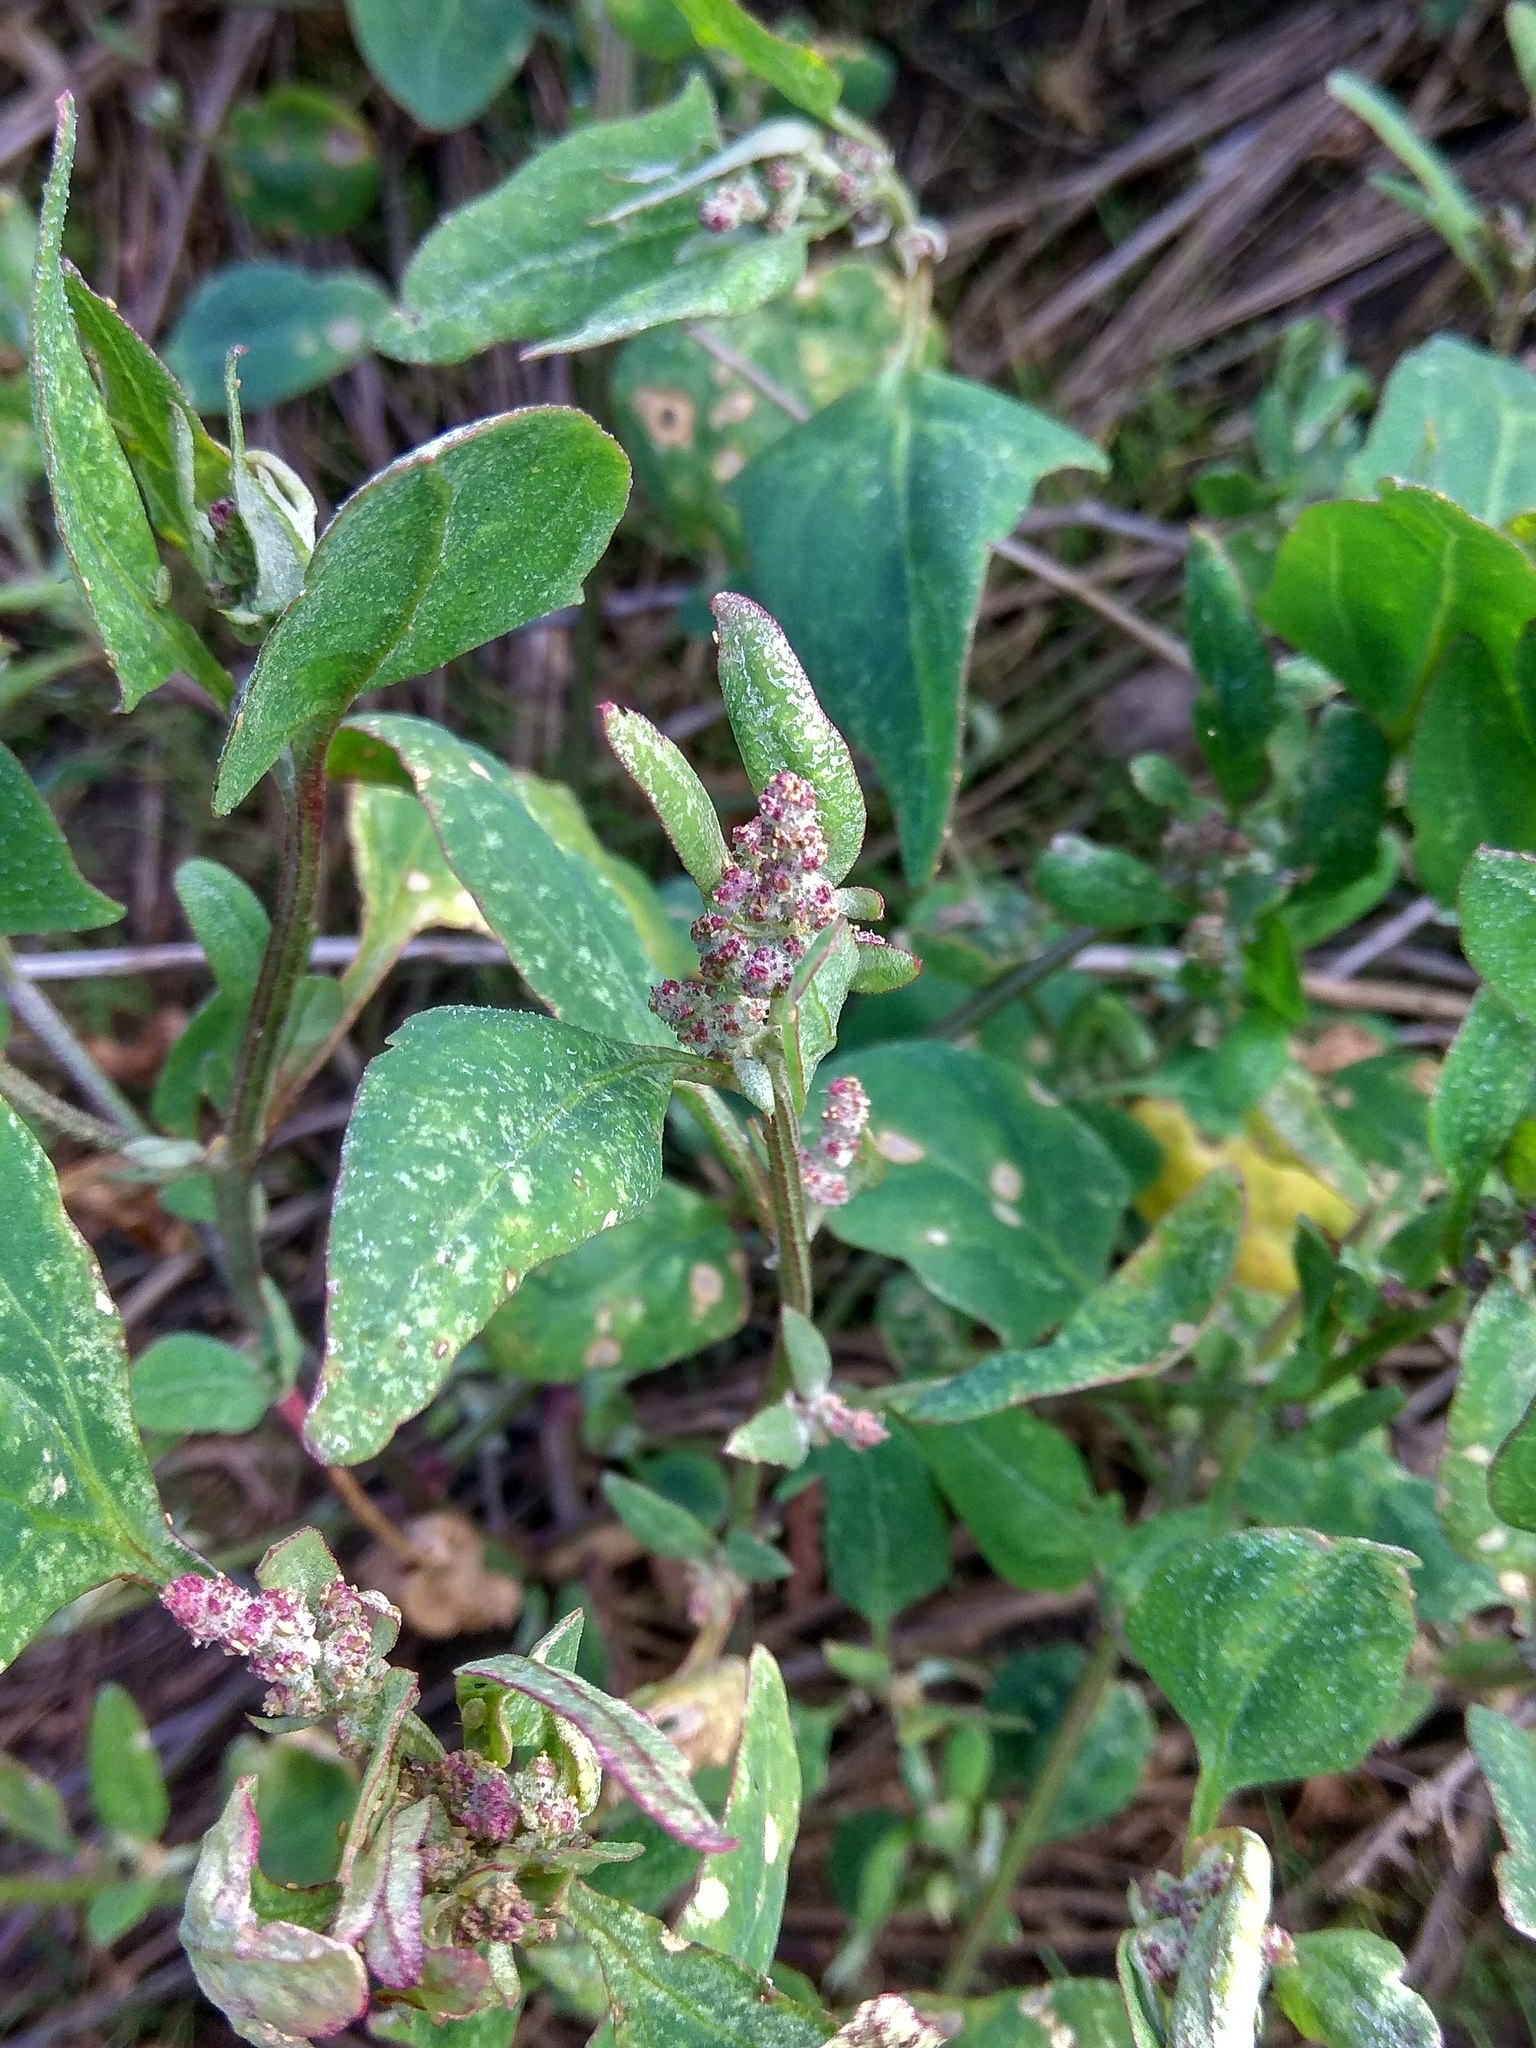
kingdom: Plantae
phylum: Tracheophyta
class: Magnoliopsida
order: Caryophyllales
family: Amaranthaceae
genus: Atriplex
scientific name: Atriplex prostrata
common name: Spear-leaved orache
